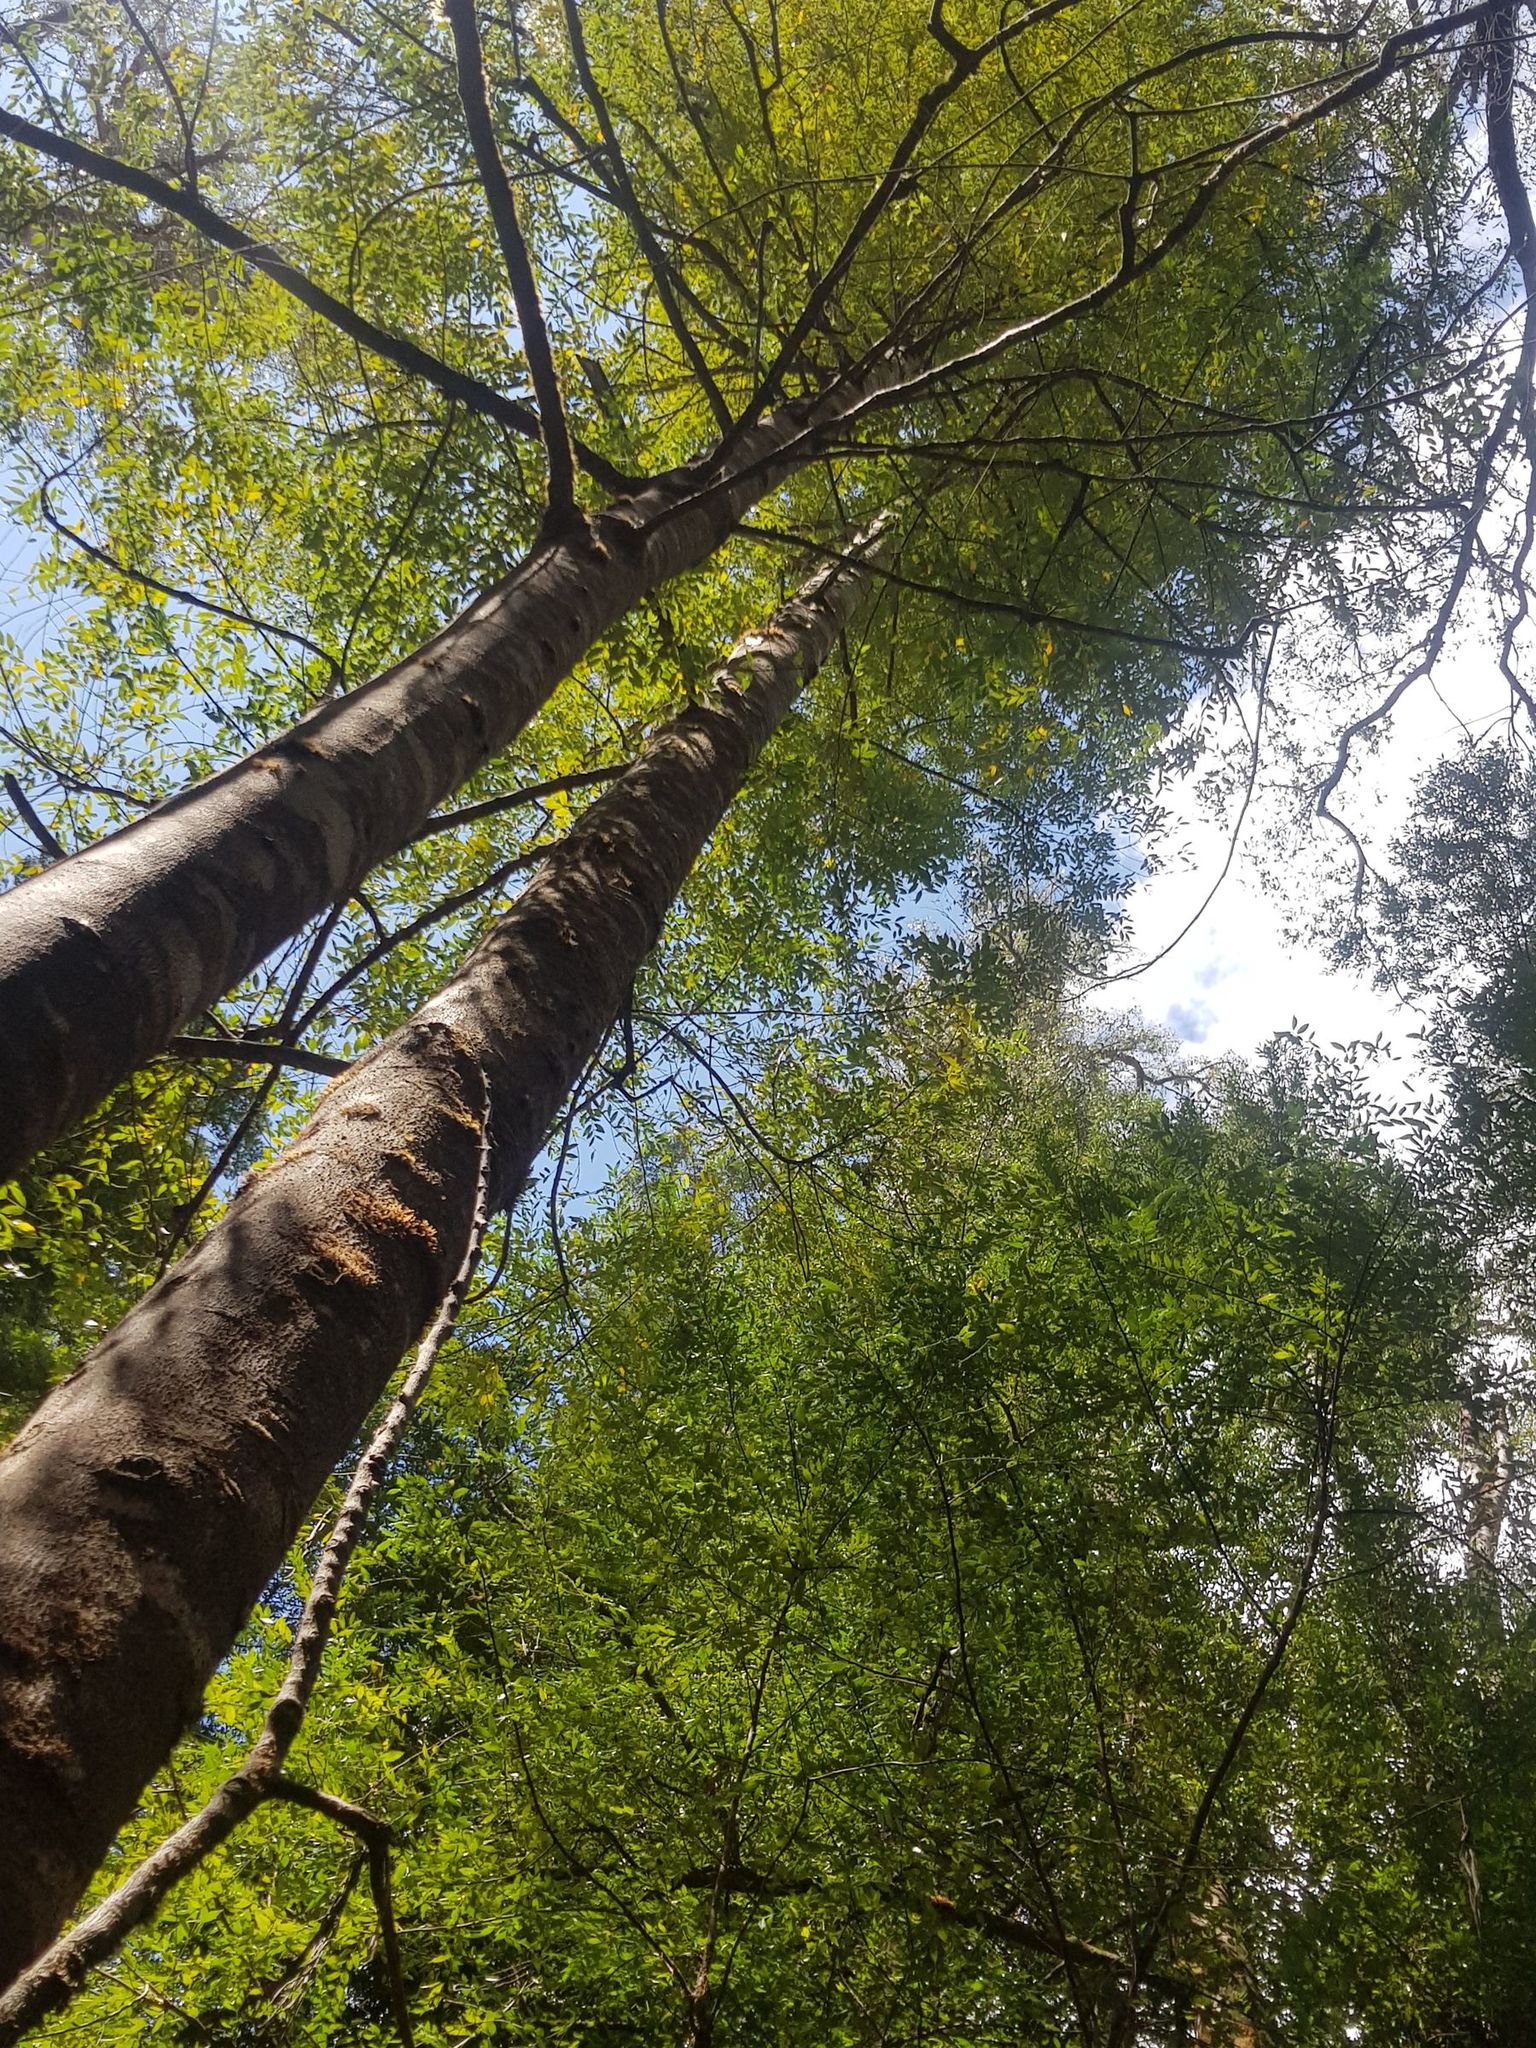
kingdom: Plantae
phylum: Tracheophyta
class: Magnoliopsida
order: Laurales
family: Atherospermataceae
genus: Atherosperma
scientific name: Atherosperma moschatum
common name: Tasmanian-sassafras
